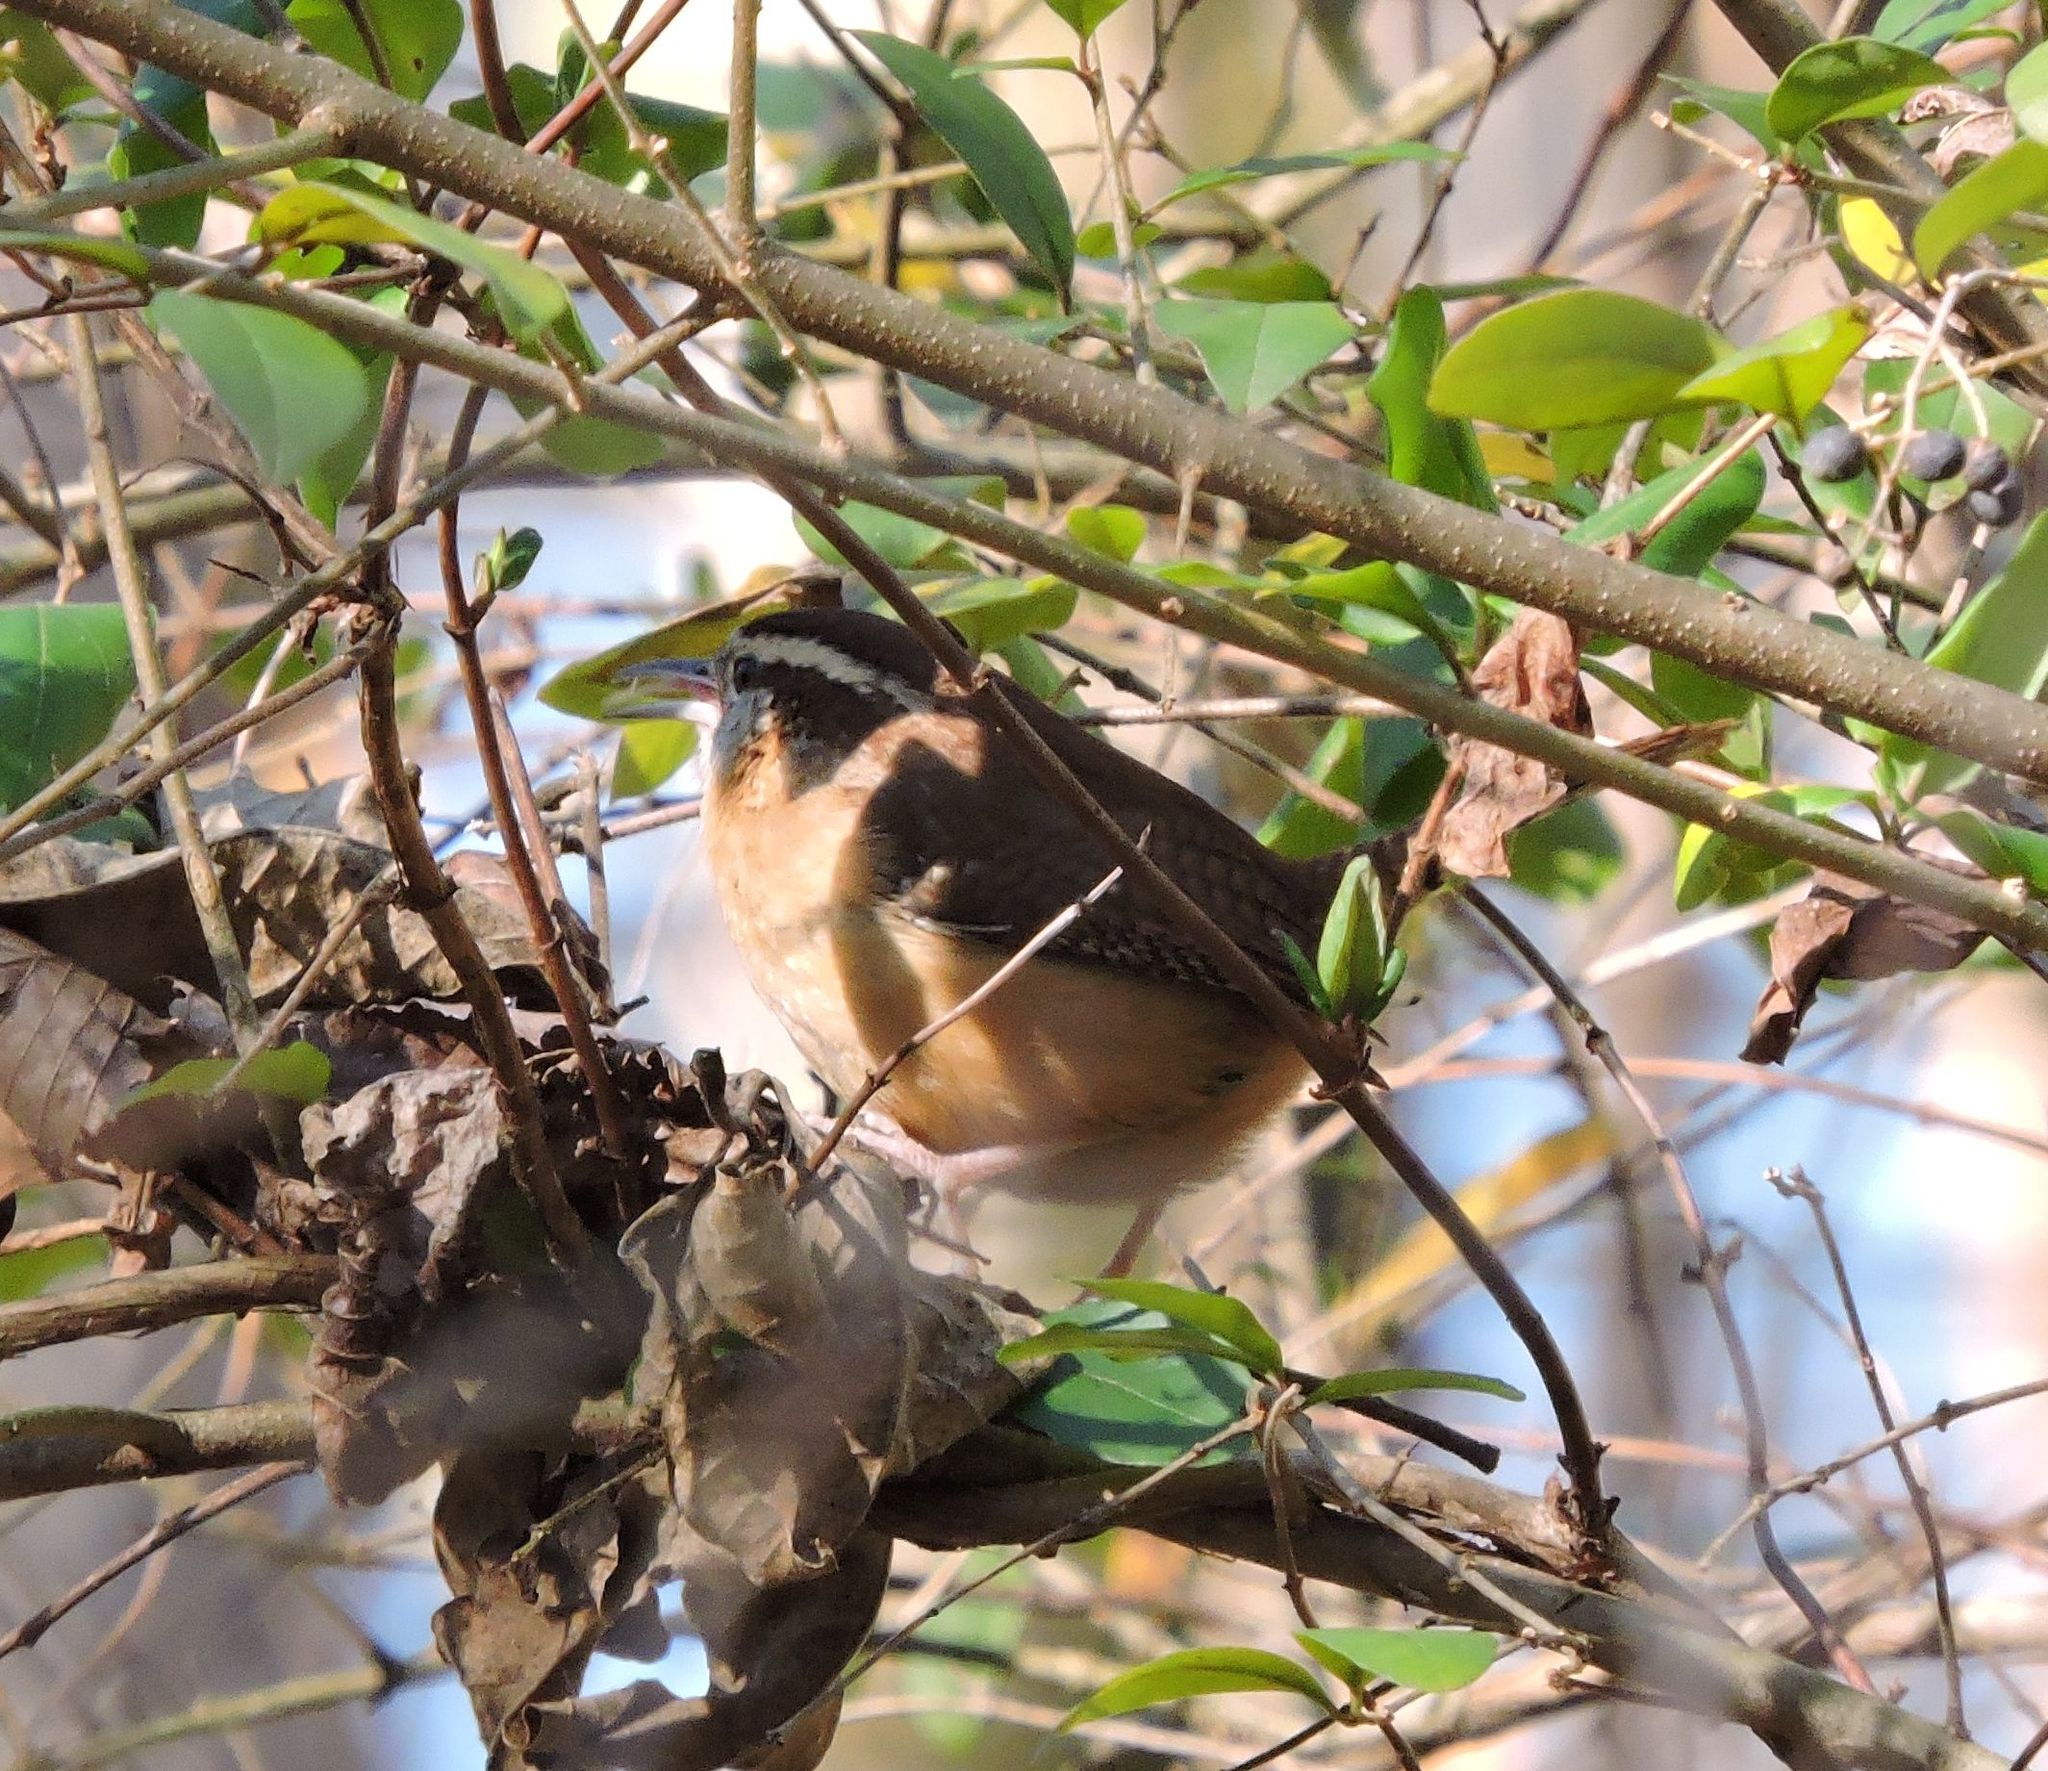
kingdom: Animalia
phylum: Chordata
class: Aves
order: Passeriformes
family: Troglodytidae
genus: Thryothorus
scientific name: Thryothorus ludovicianus
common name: Carolina wren
